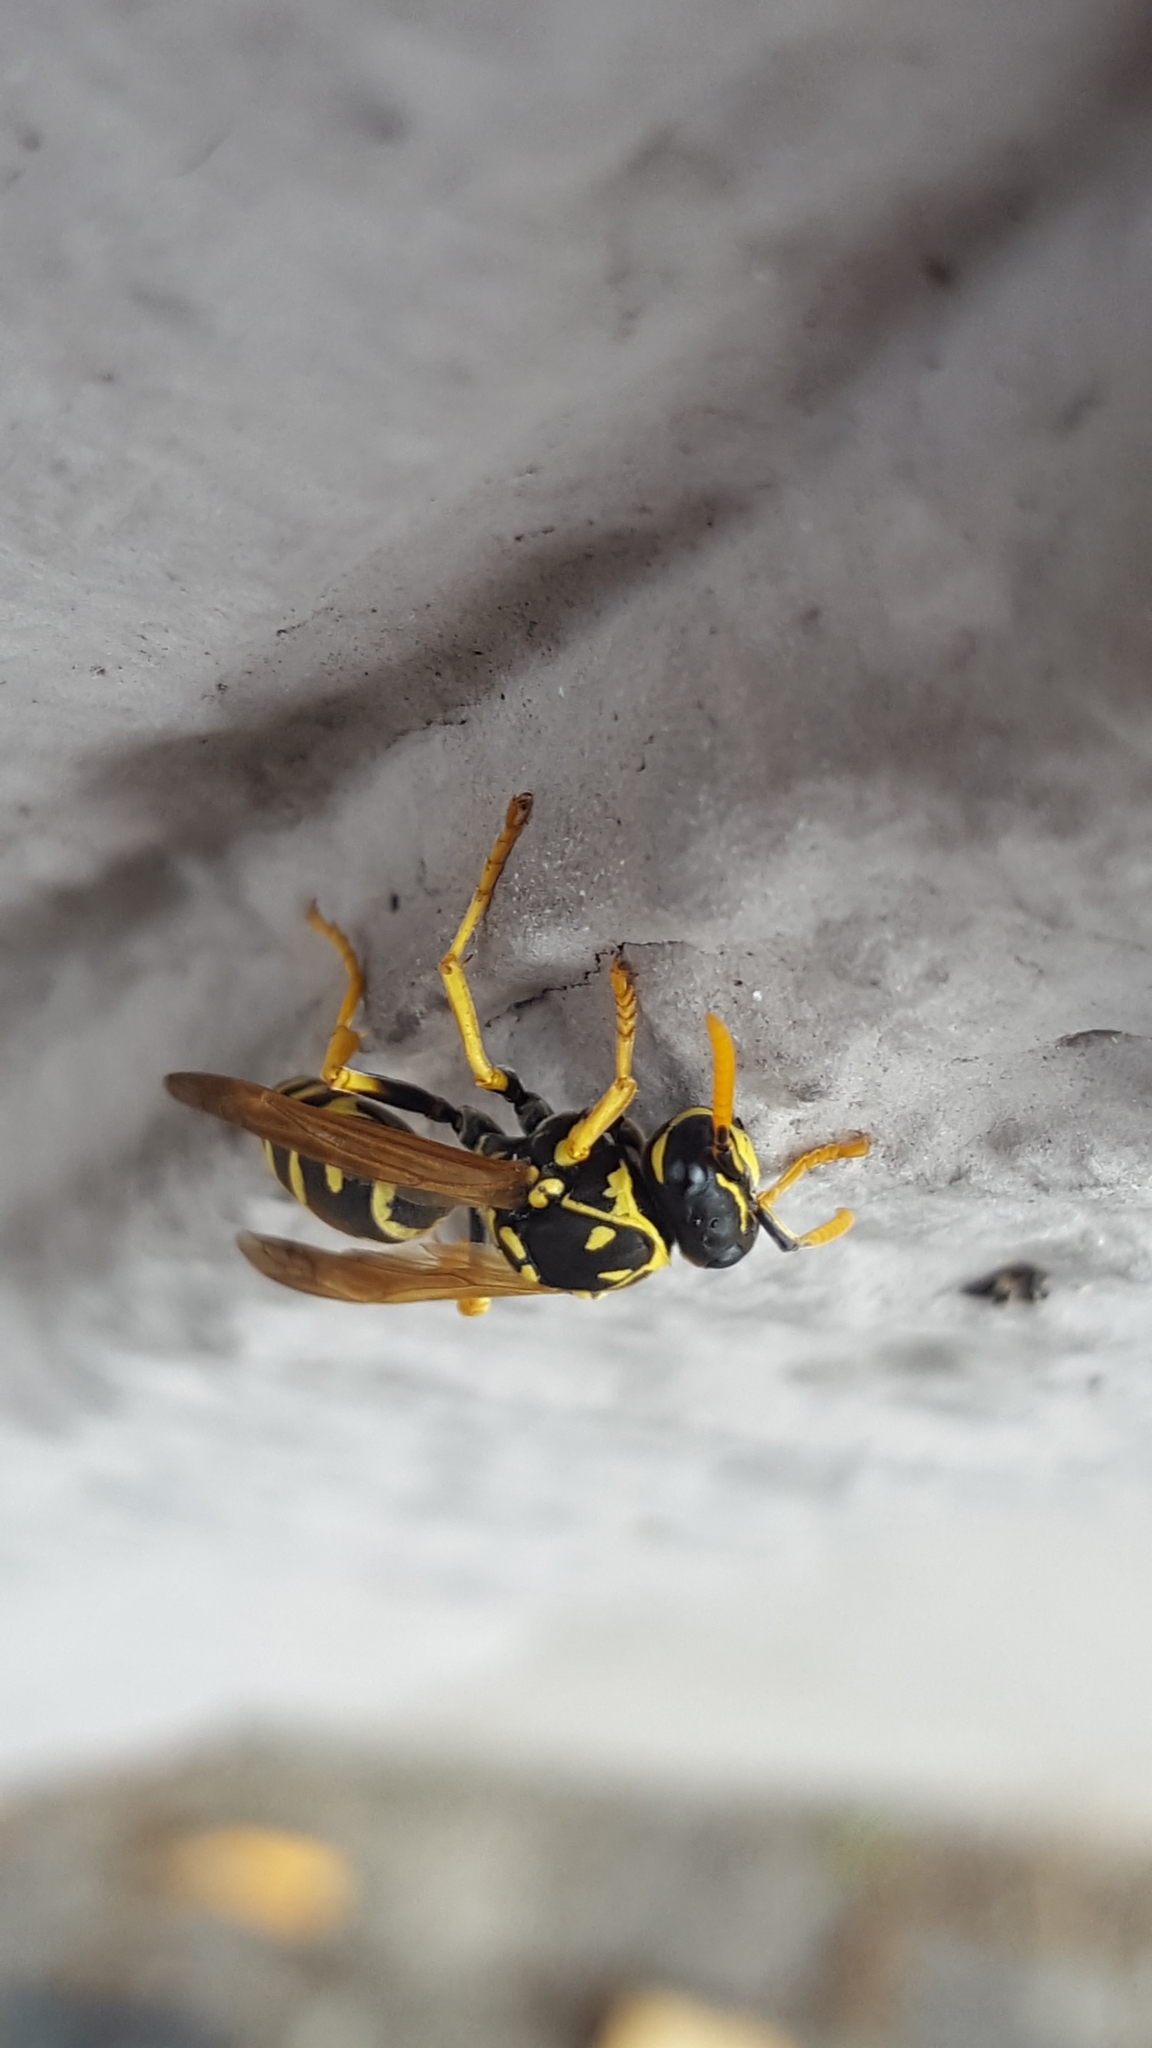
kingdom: Animalia
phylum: Arthropoda
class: Insecta
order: Hymenoptera
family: Eumenidae
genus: Polistes
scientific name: Polistes dominula
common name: Paper wasp
